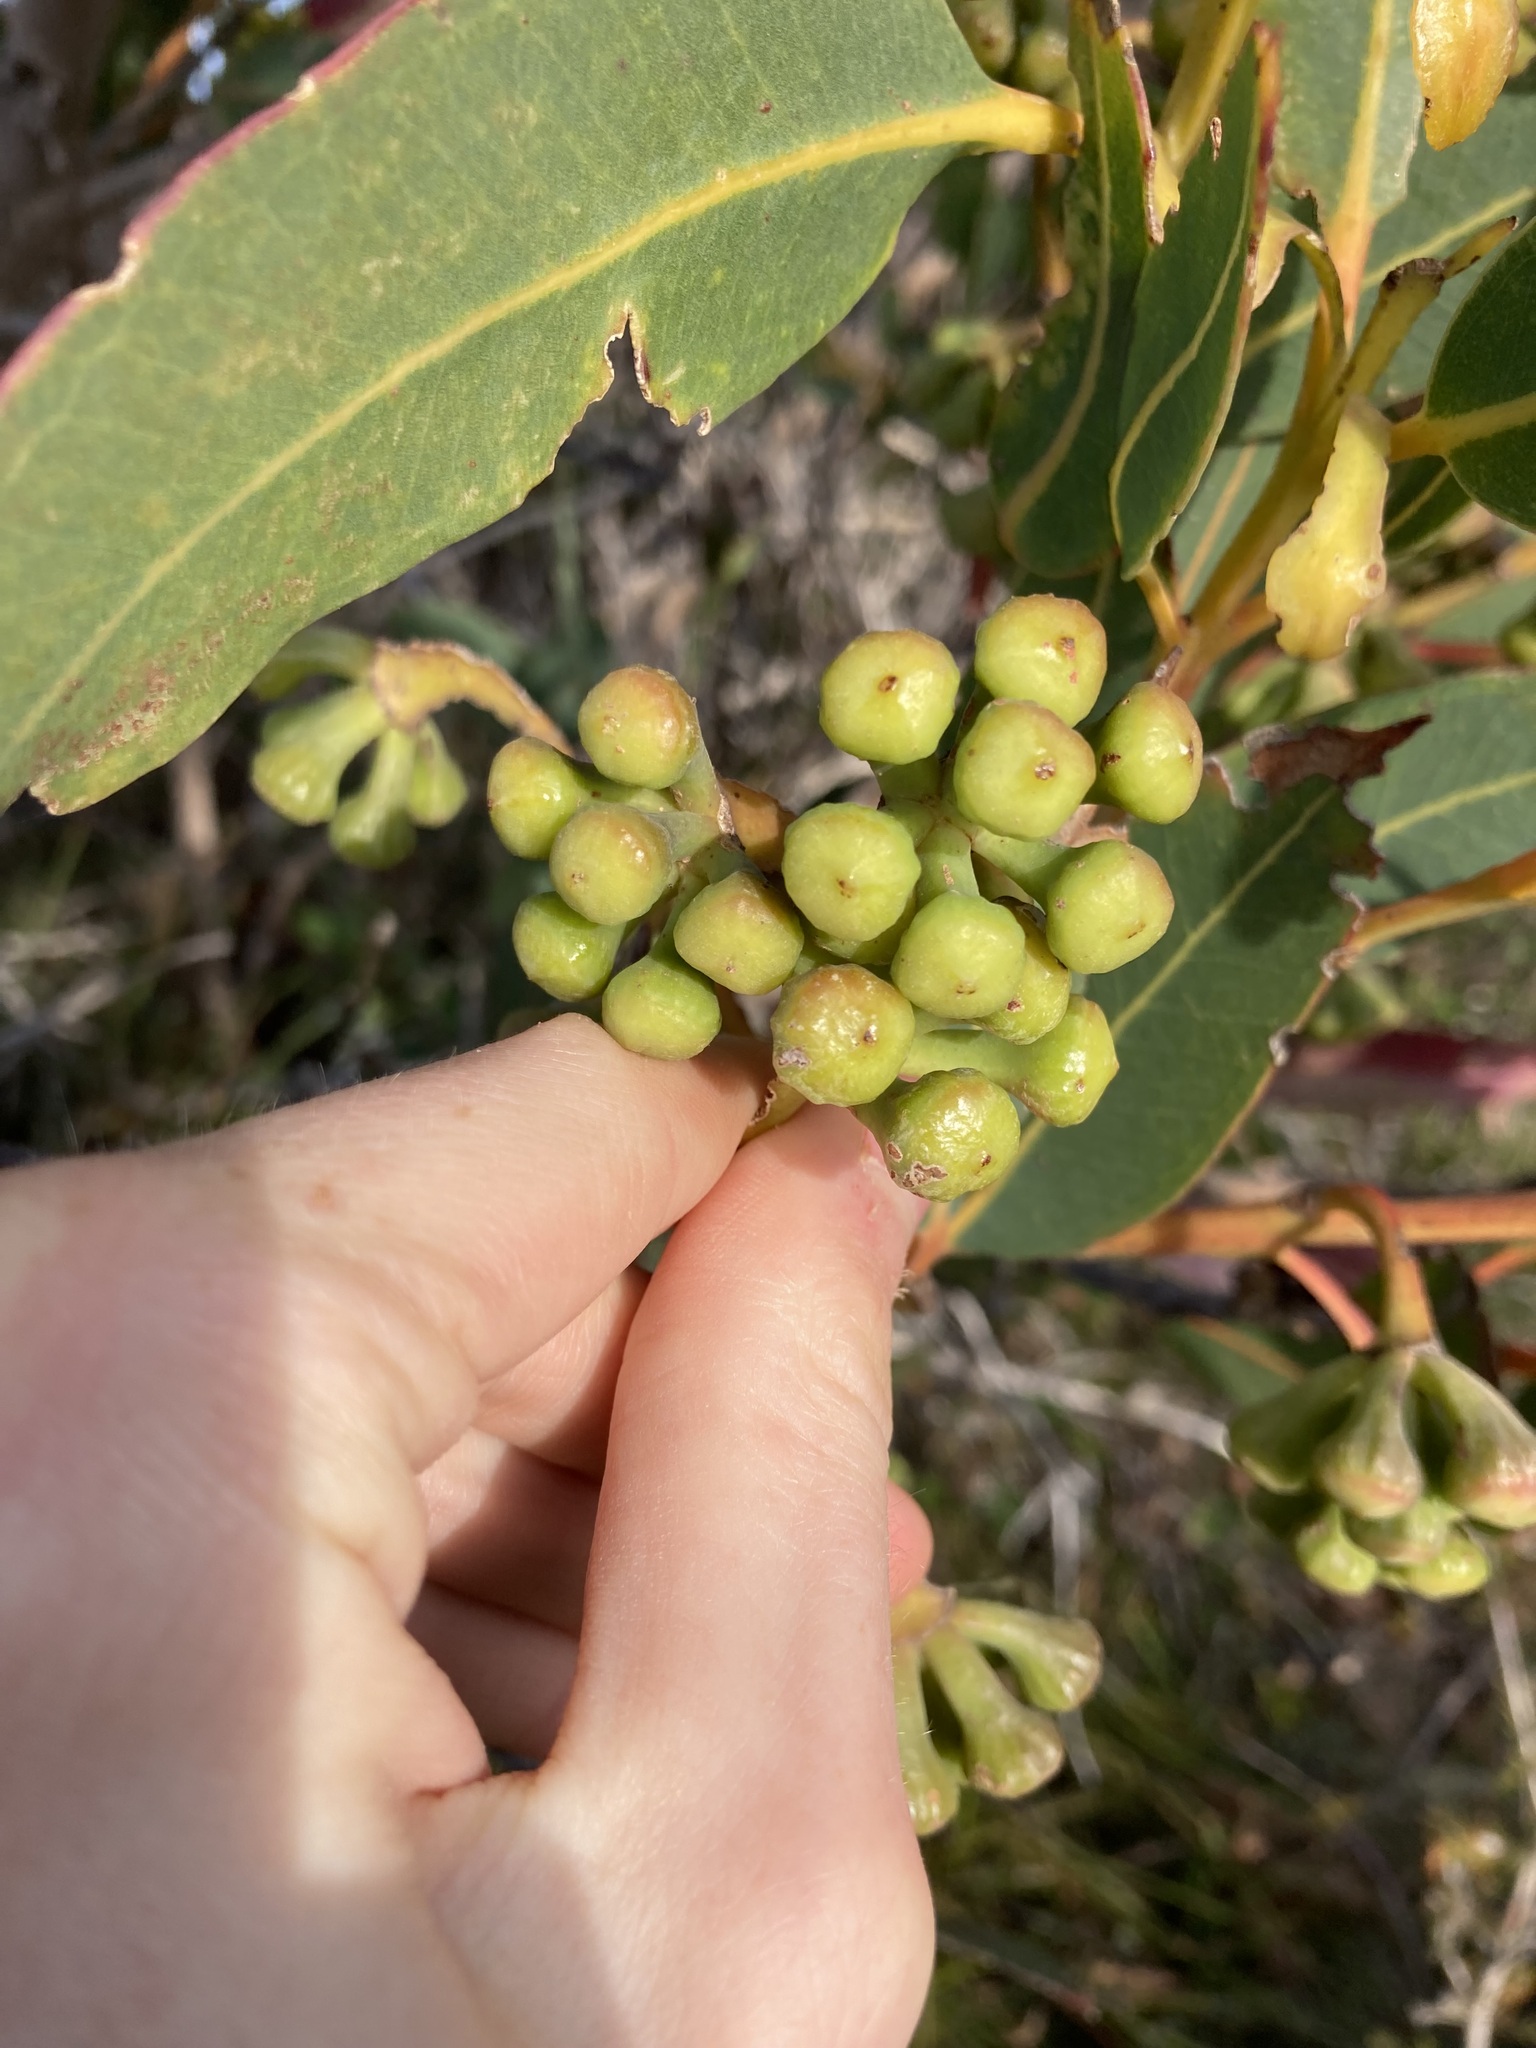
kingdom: Plantae
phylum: Tracheophyta
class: Magnoliopsida
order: Myrtales
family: Myrtaceae
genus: Eucalyptus
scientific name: Eucalyptus acies
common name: Woolbernup mallee
